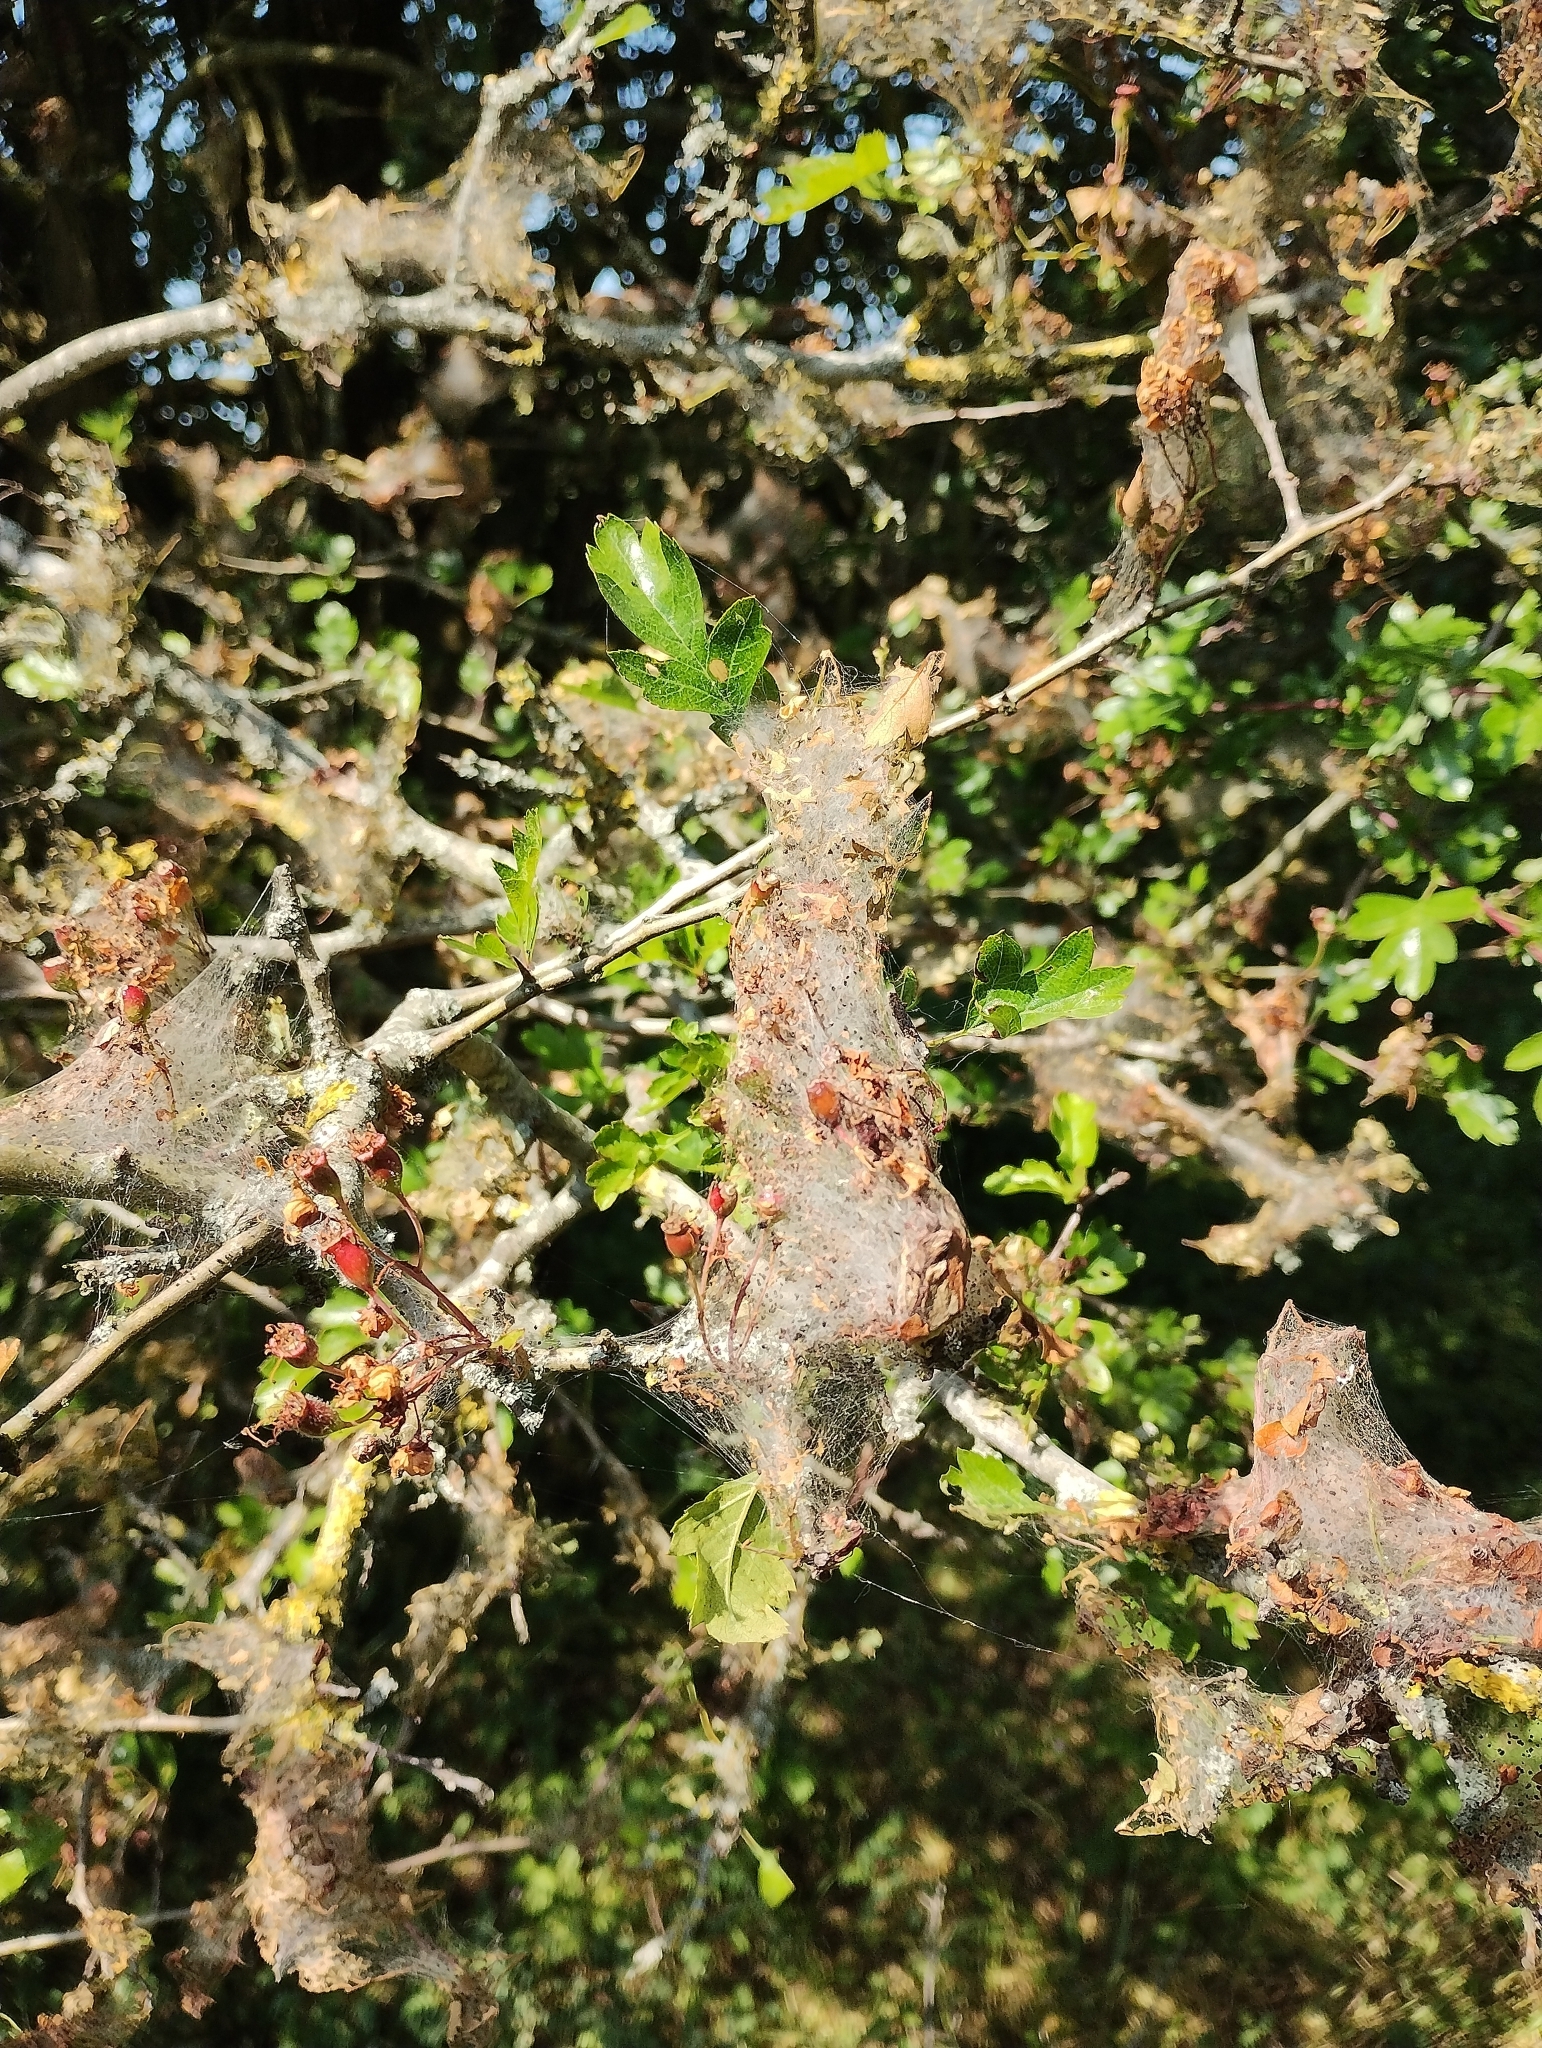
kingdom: Animalia
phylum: Arthropoda
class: Insecta
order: Lepidoptera
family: Yponomeutidae
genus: Yponomeuta
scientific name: Yponomeuta padella
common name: Orchard ermine
